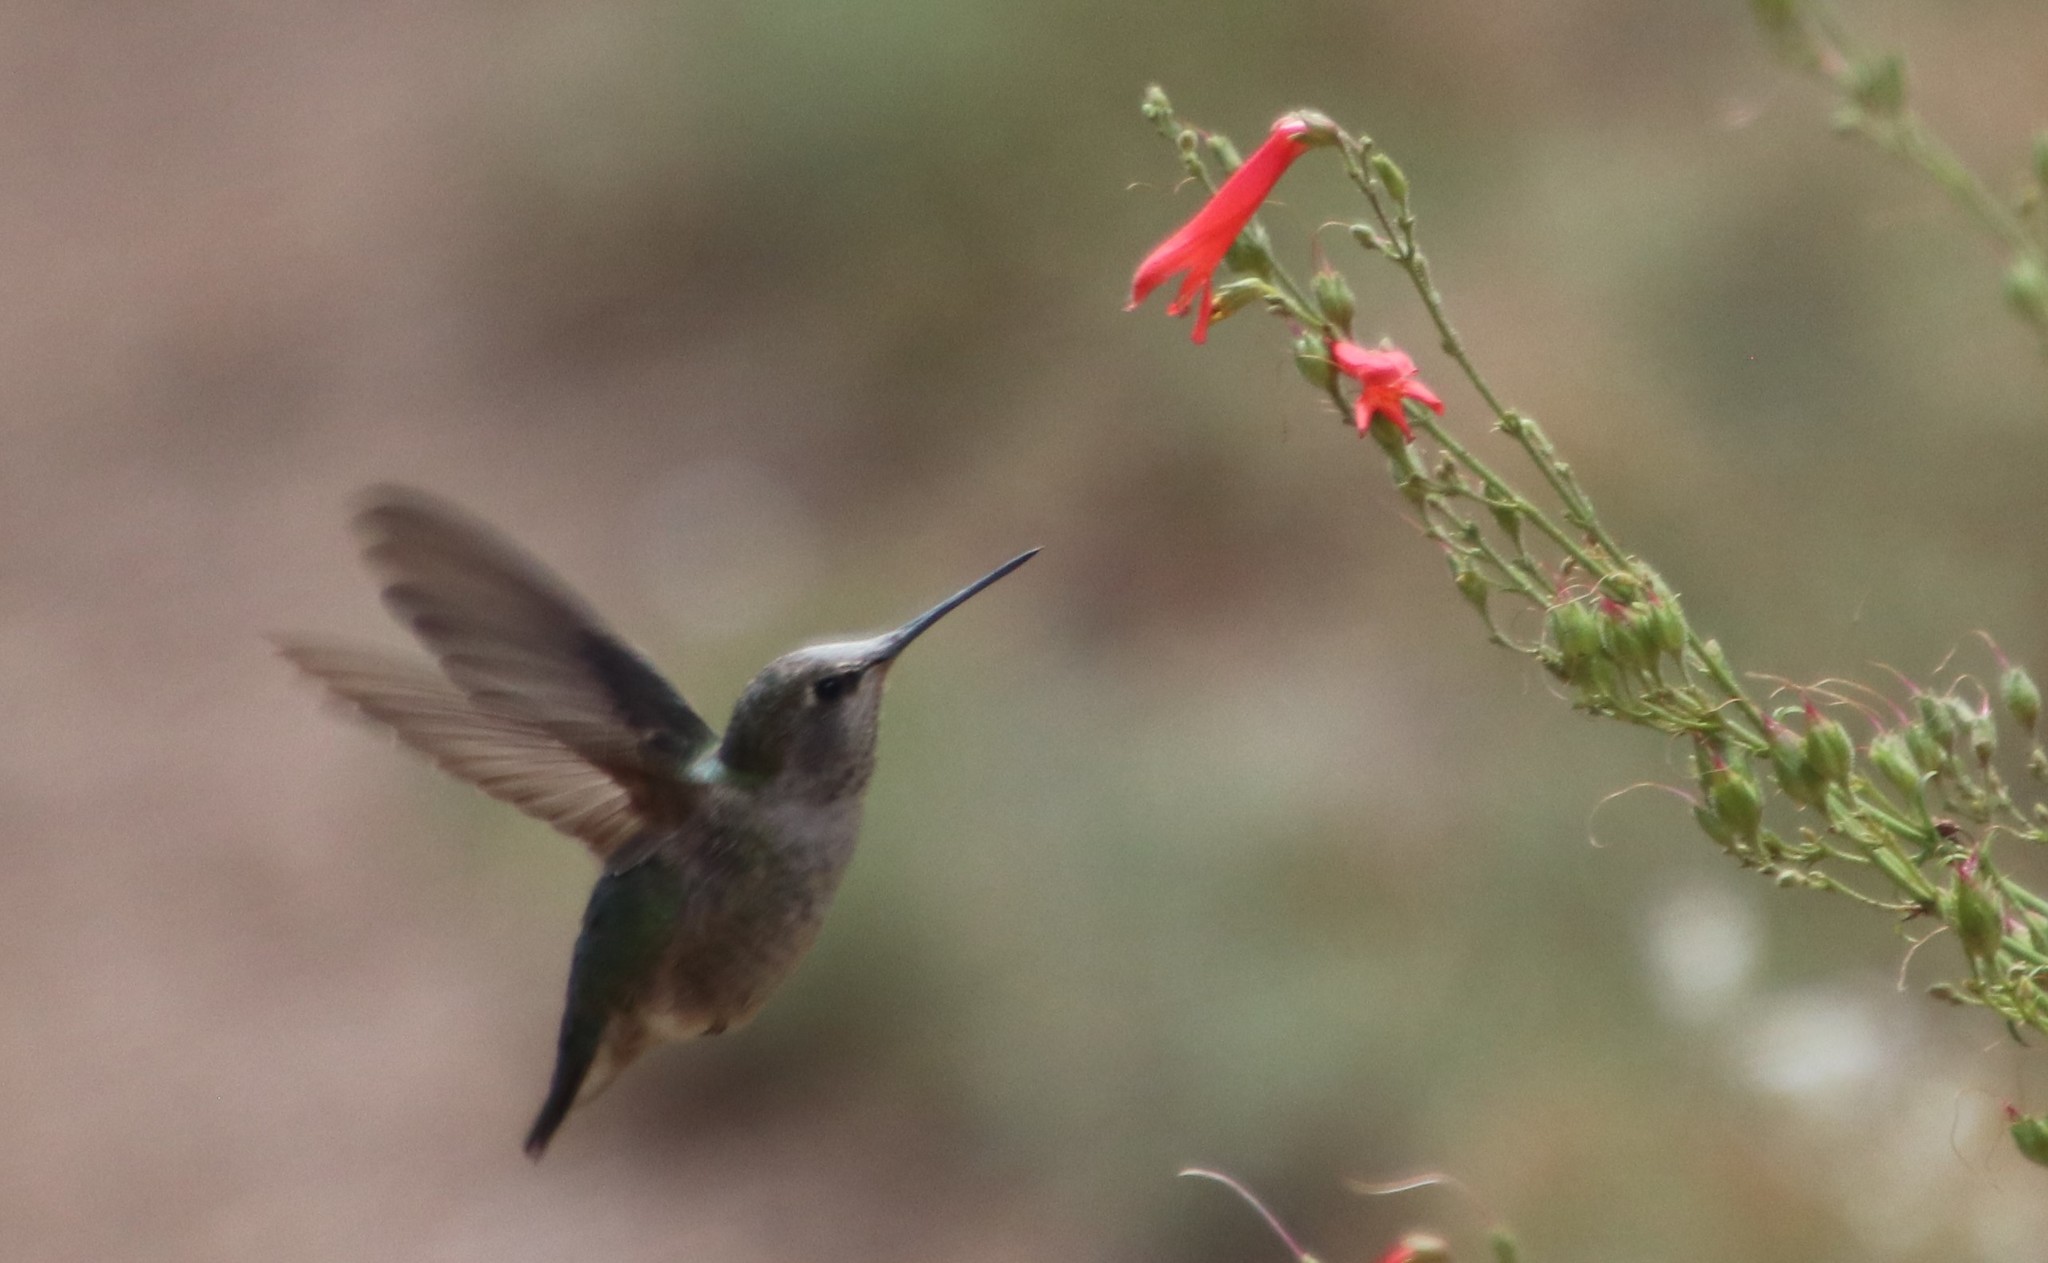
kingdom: Animalia
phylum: Chordata
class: Aves
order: Apodiformes
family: Trochilidae
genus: Calypte
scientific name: Calypte anna
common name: Anna's hummingbird
